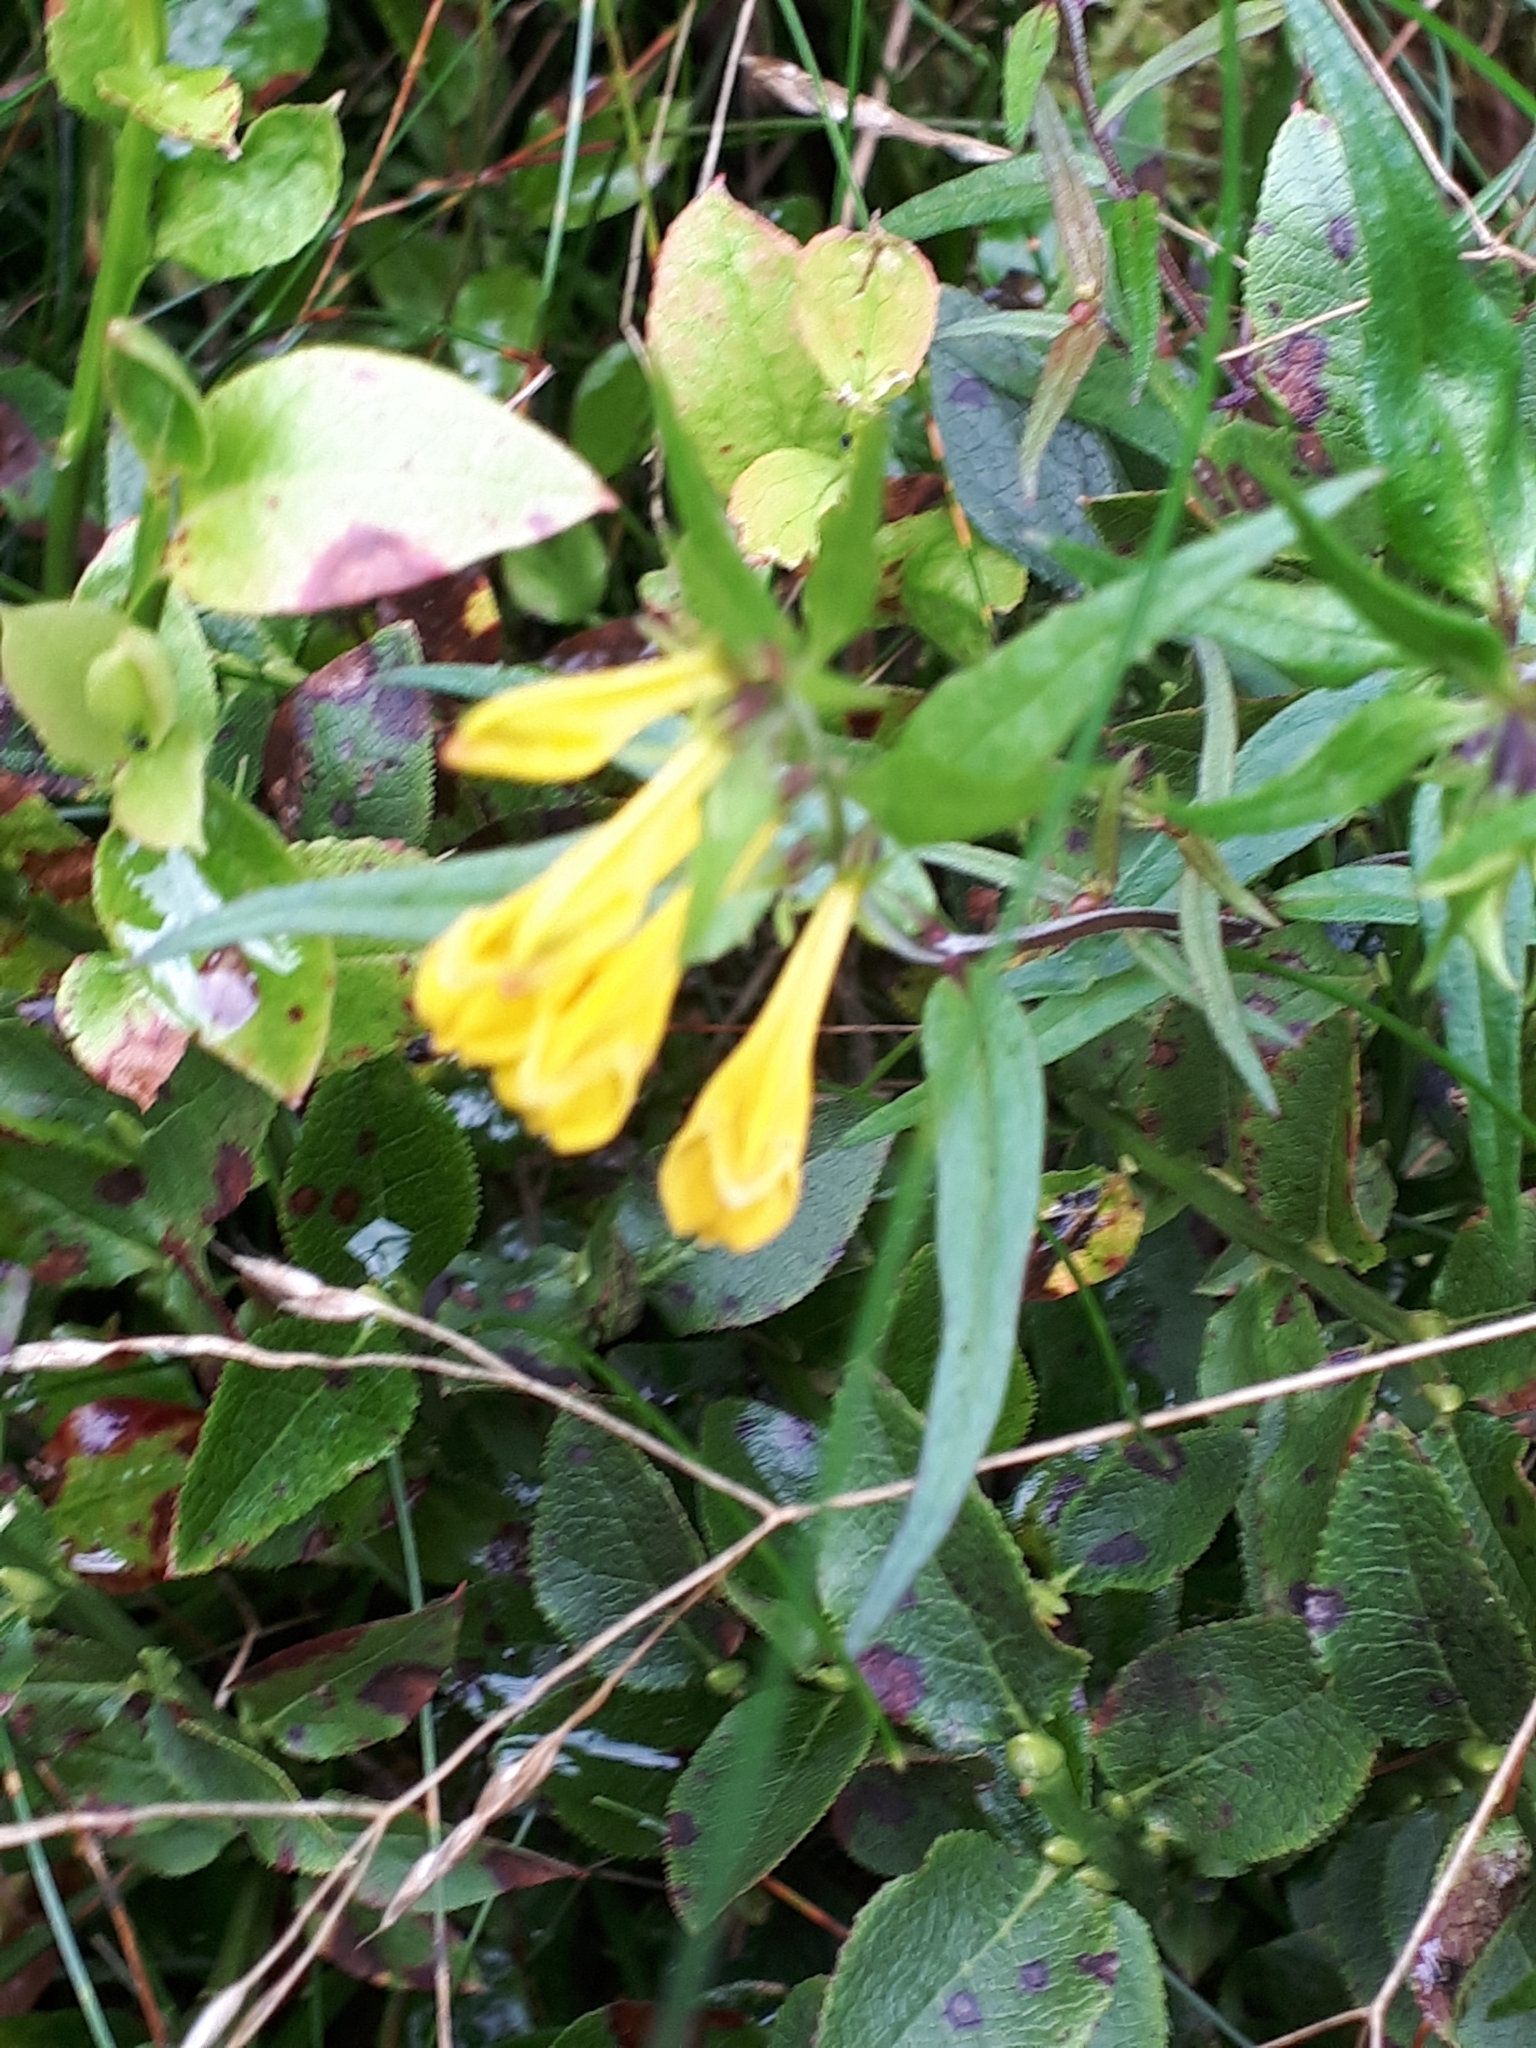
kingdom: Plantae
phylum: Tracheophyta
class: Magnoliopsida
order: Lamiales
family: Orobanchaceae
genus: Melampyrum
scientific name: Melampyrum pratense
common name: Common cow-wheat
